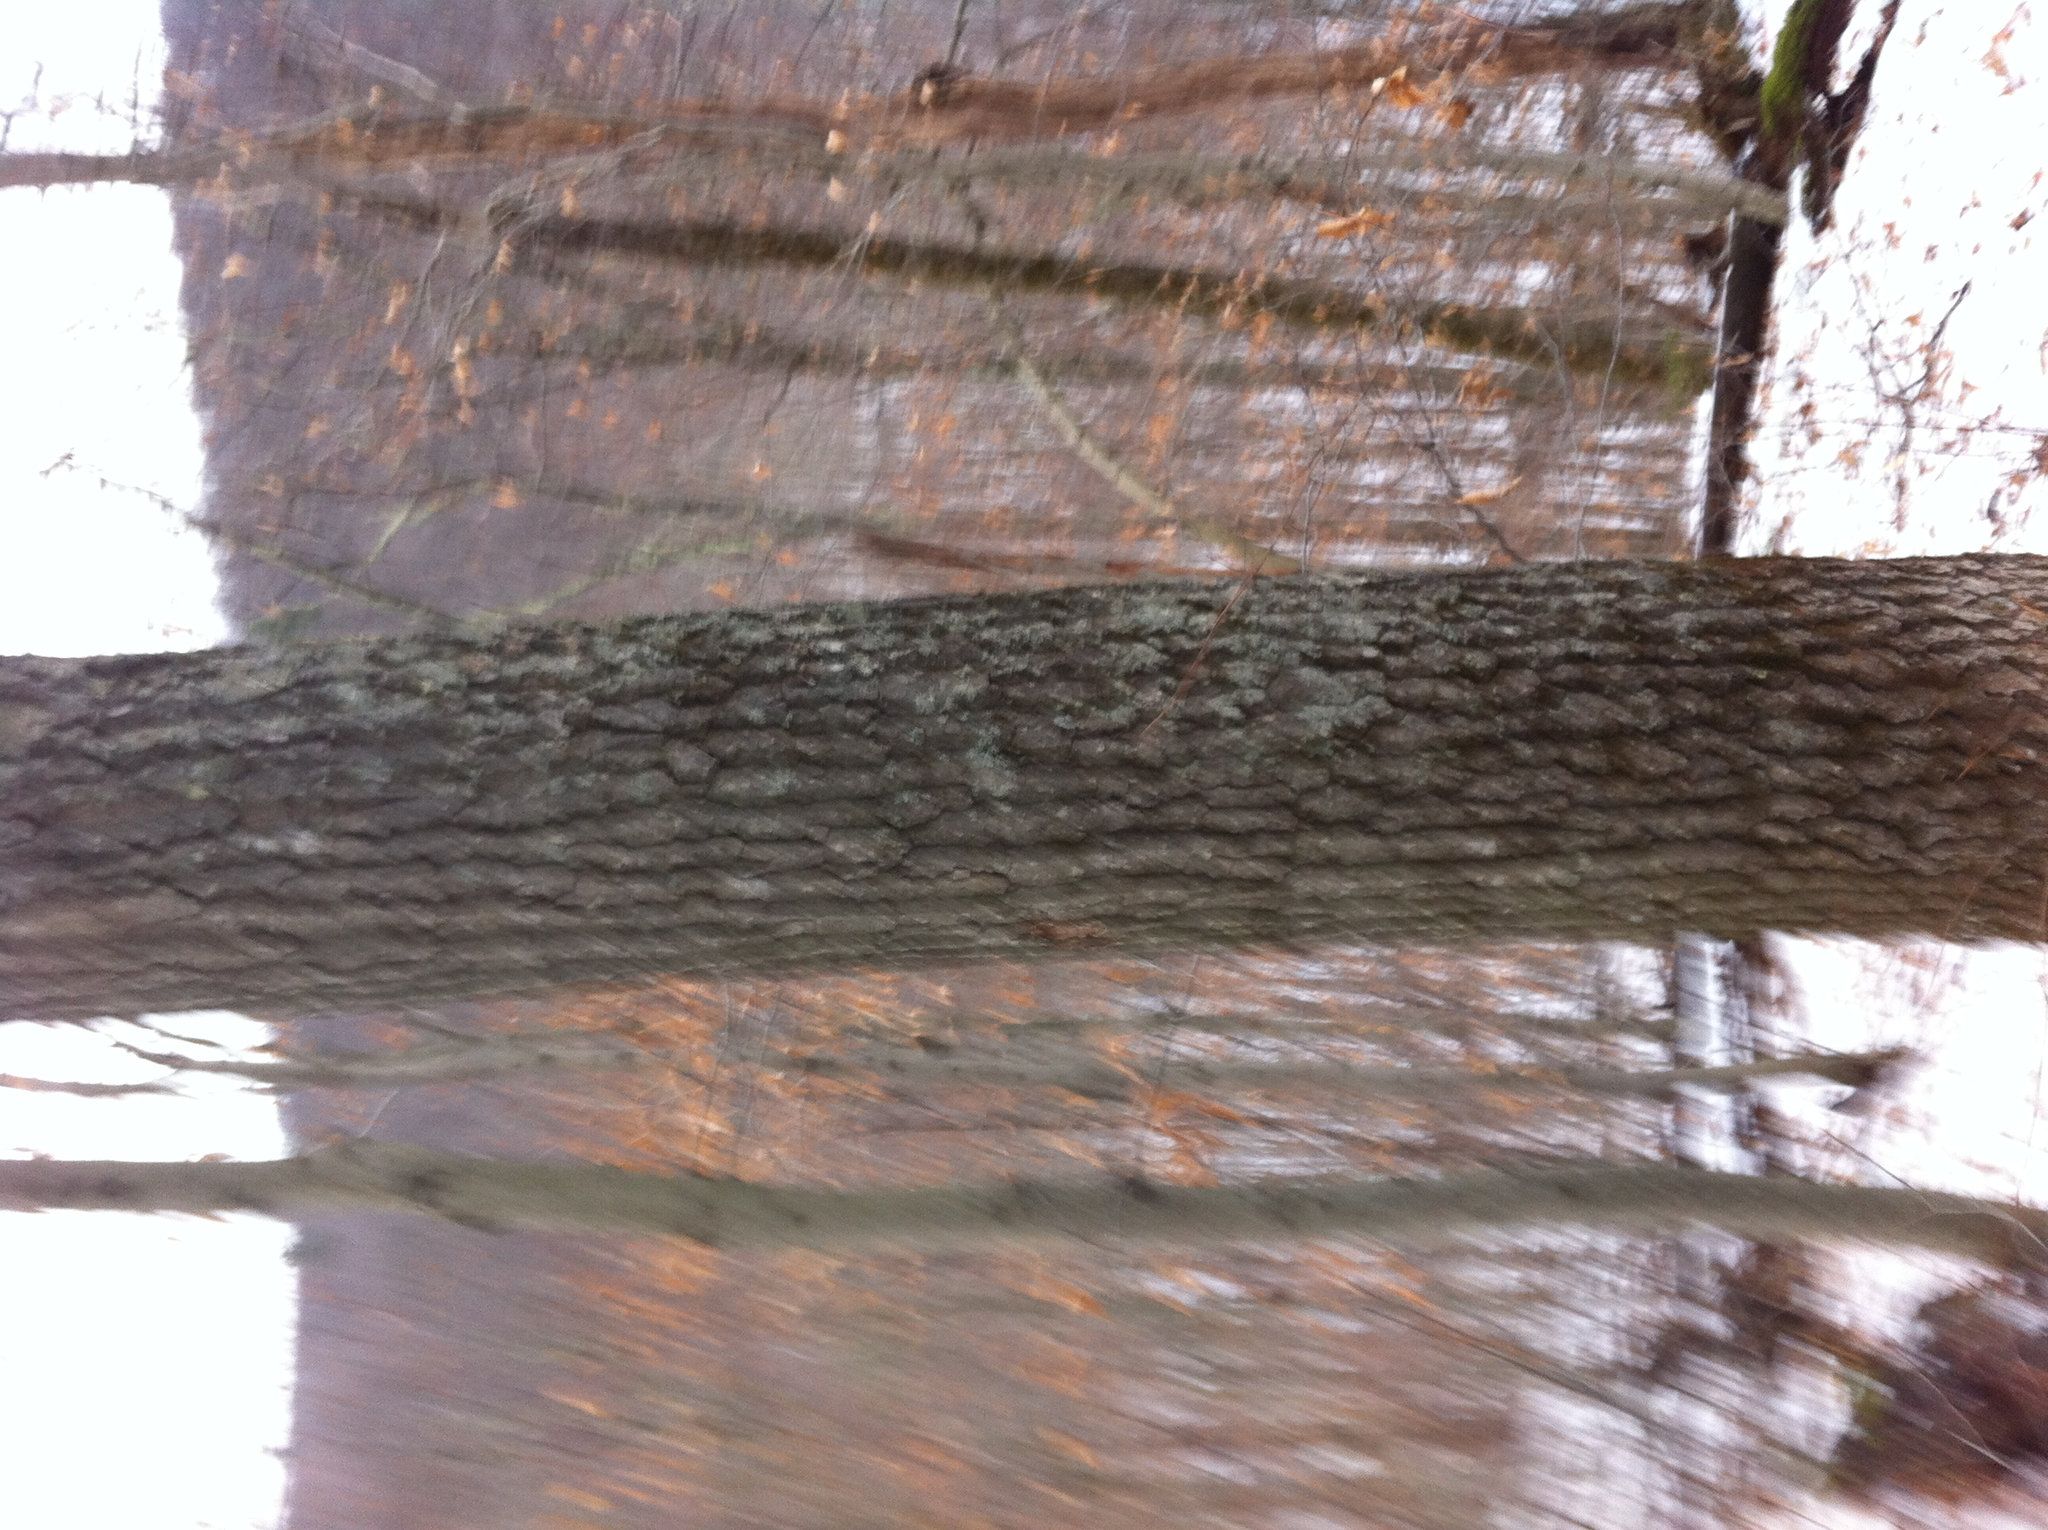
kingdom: Plantae
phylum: Tracheophyta
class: Magnoliopsida
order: Fagales
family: Fagaceae
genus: Quercus
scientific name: Quercus rubra
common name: Red oak
